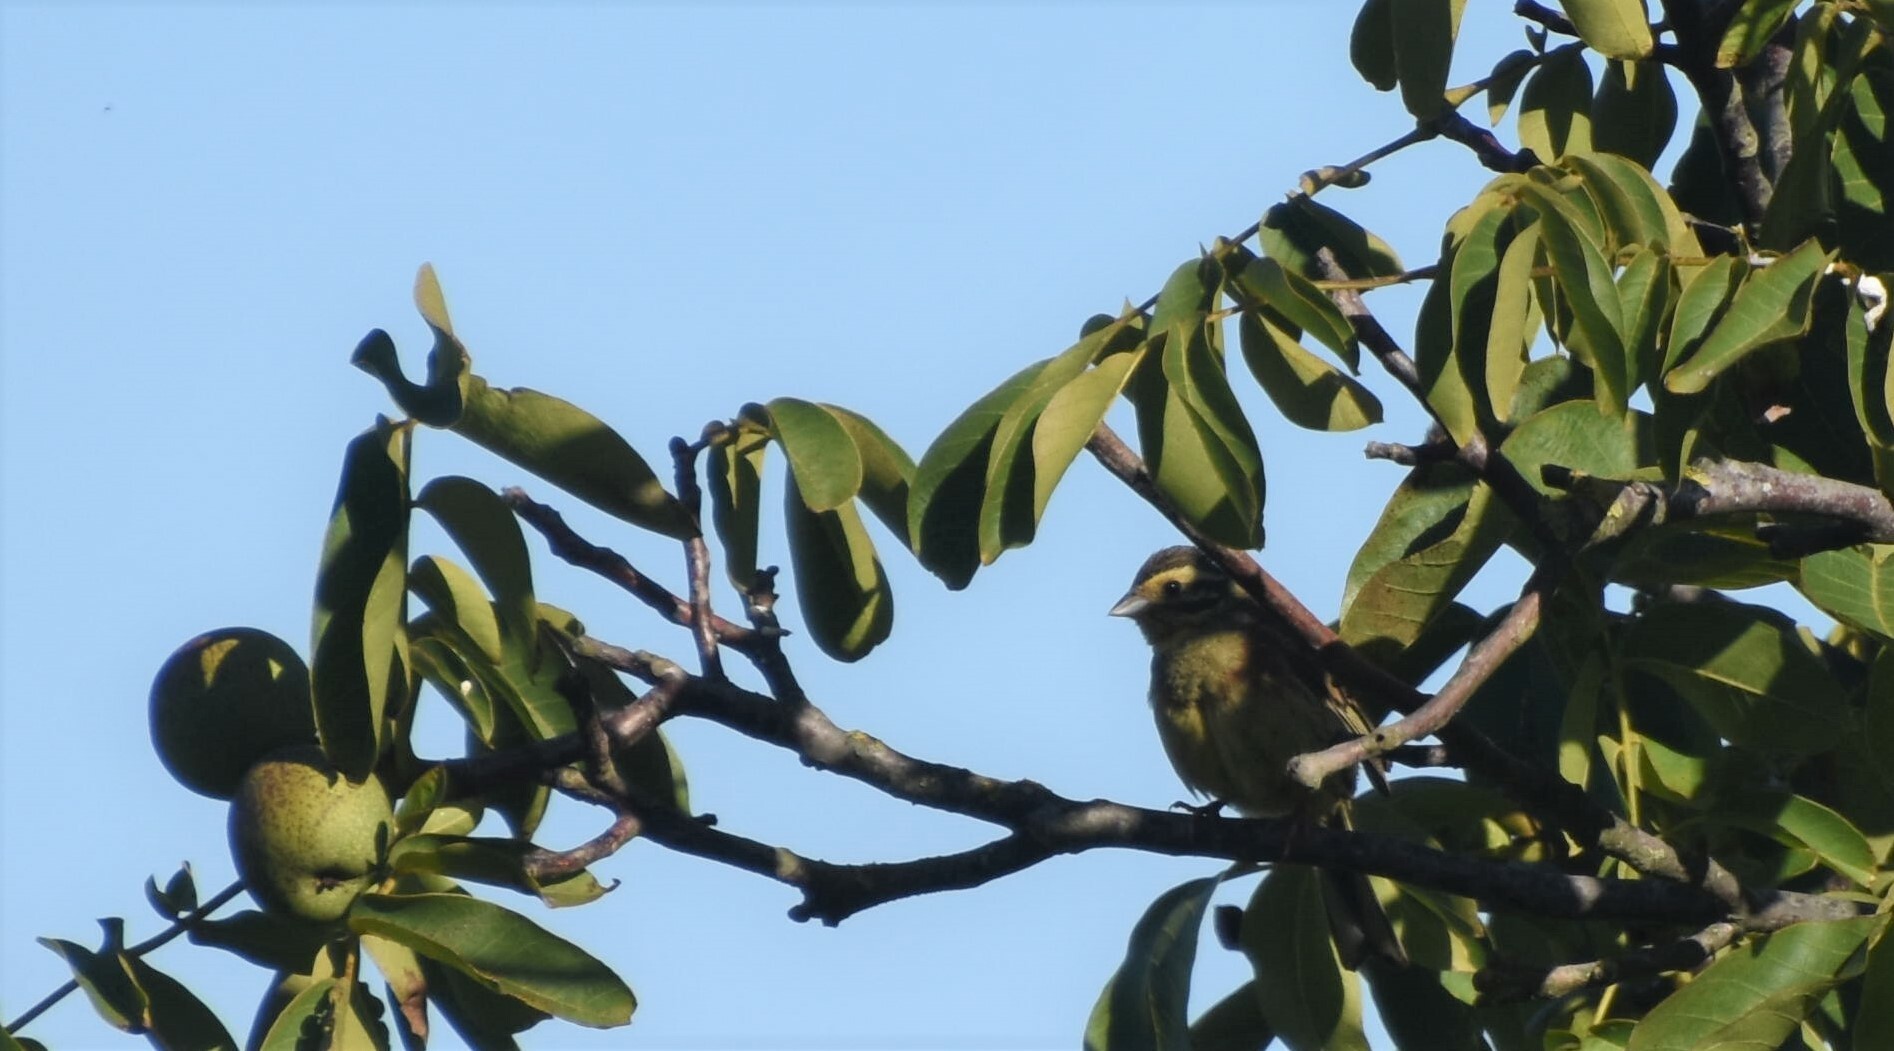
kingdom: Animalia
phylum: Chordata
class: Aves
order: Passeriformes
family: Emberizidae
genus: Emberiza
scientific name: Emberiza cirlus
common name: Cirl bunting
